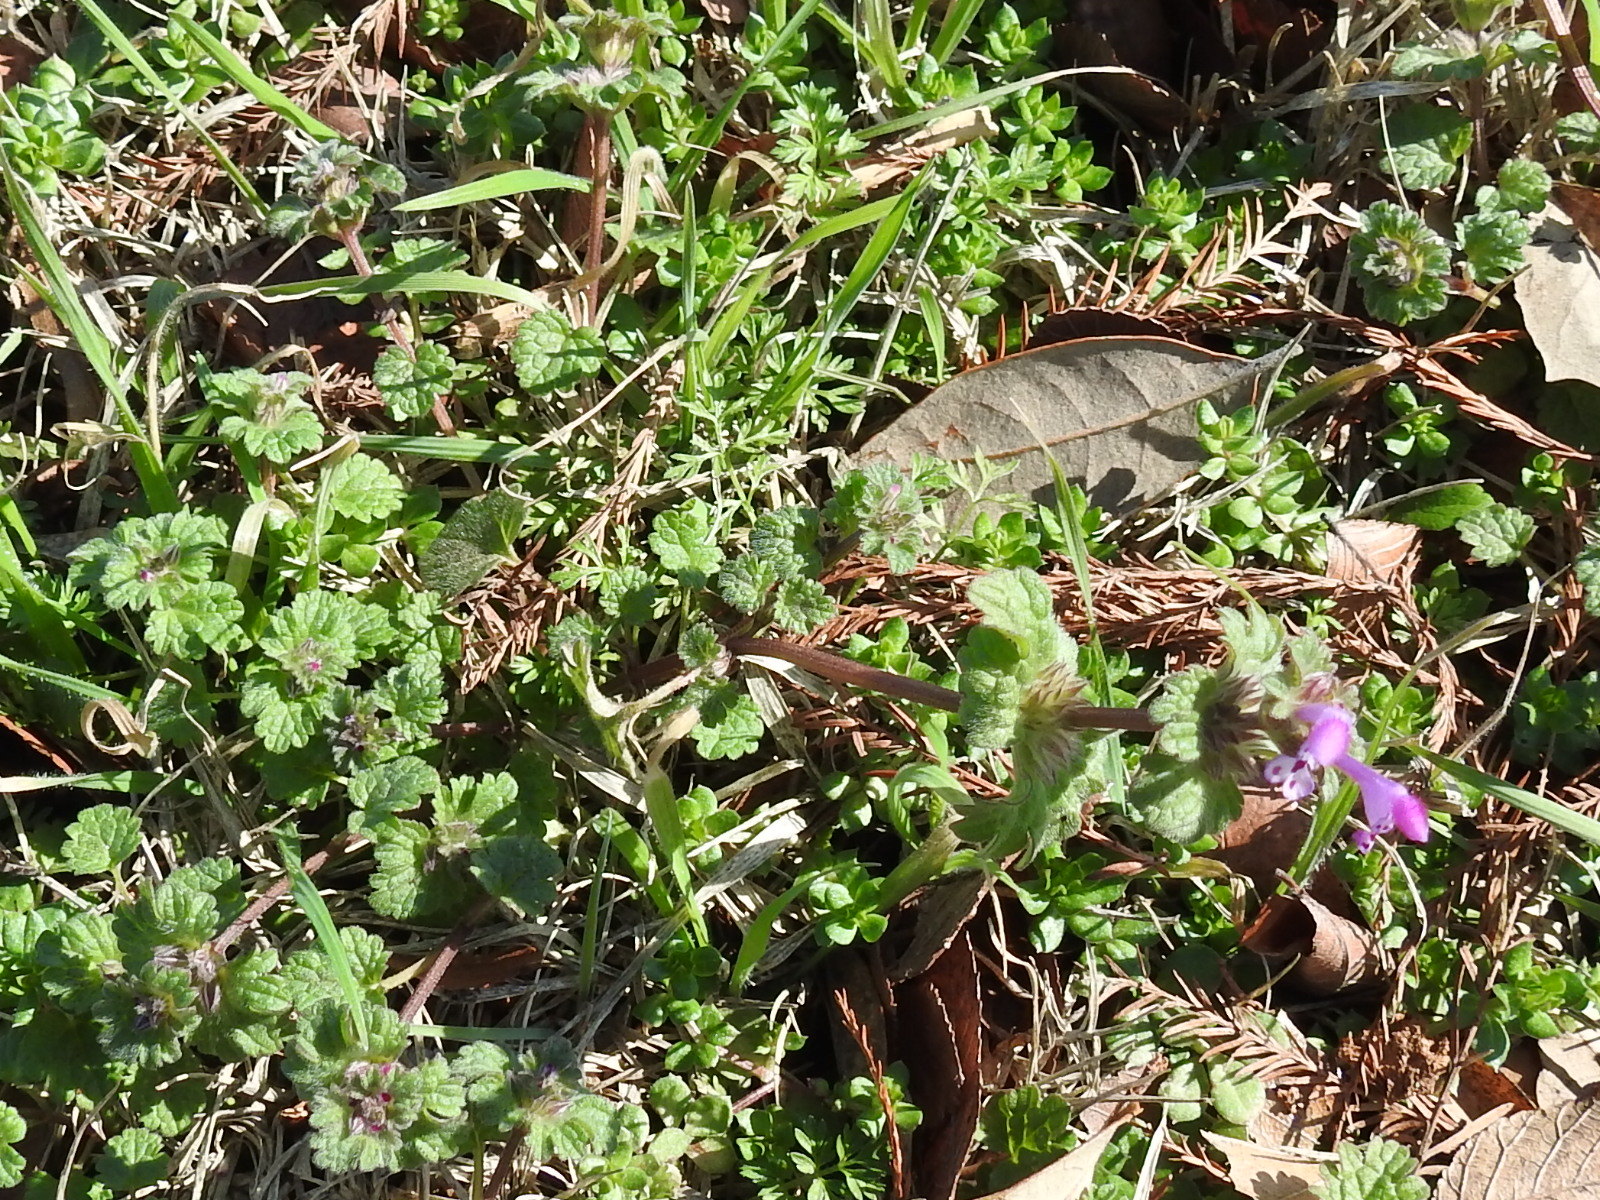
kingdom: Plantae
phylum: Tracheophyta
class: Magnoliopsida
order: Lamiales
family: Lamiaceae
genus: Lamium
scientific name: Lamium amplexicaule
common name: Henbit dead-nettle
